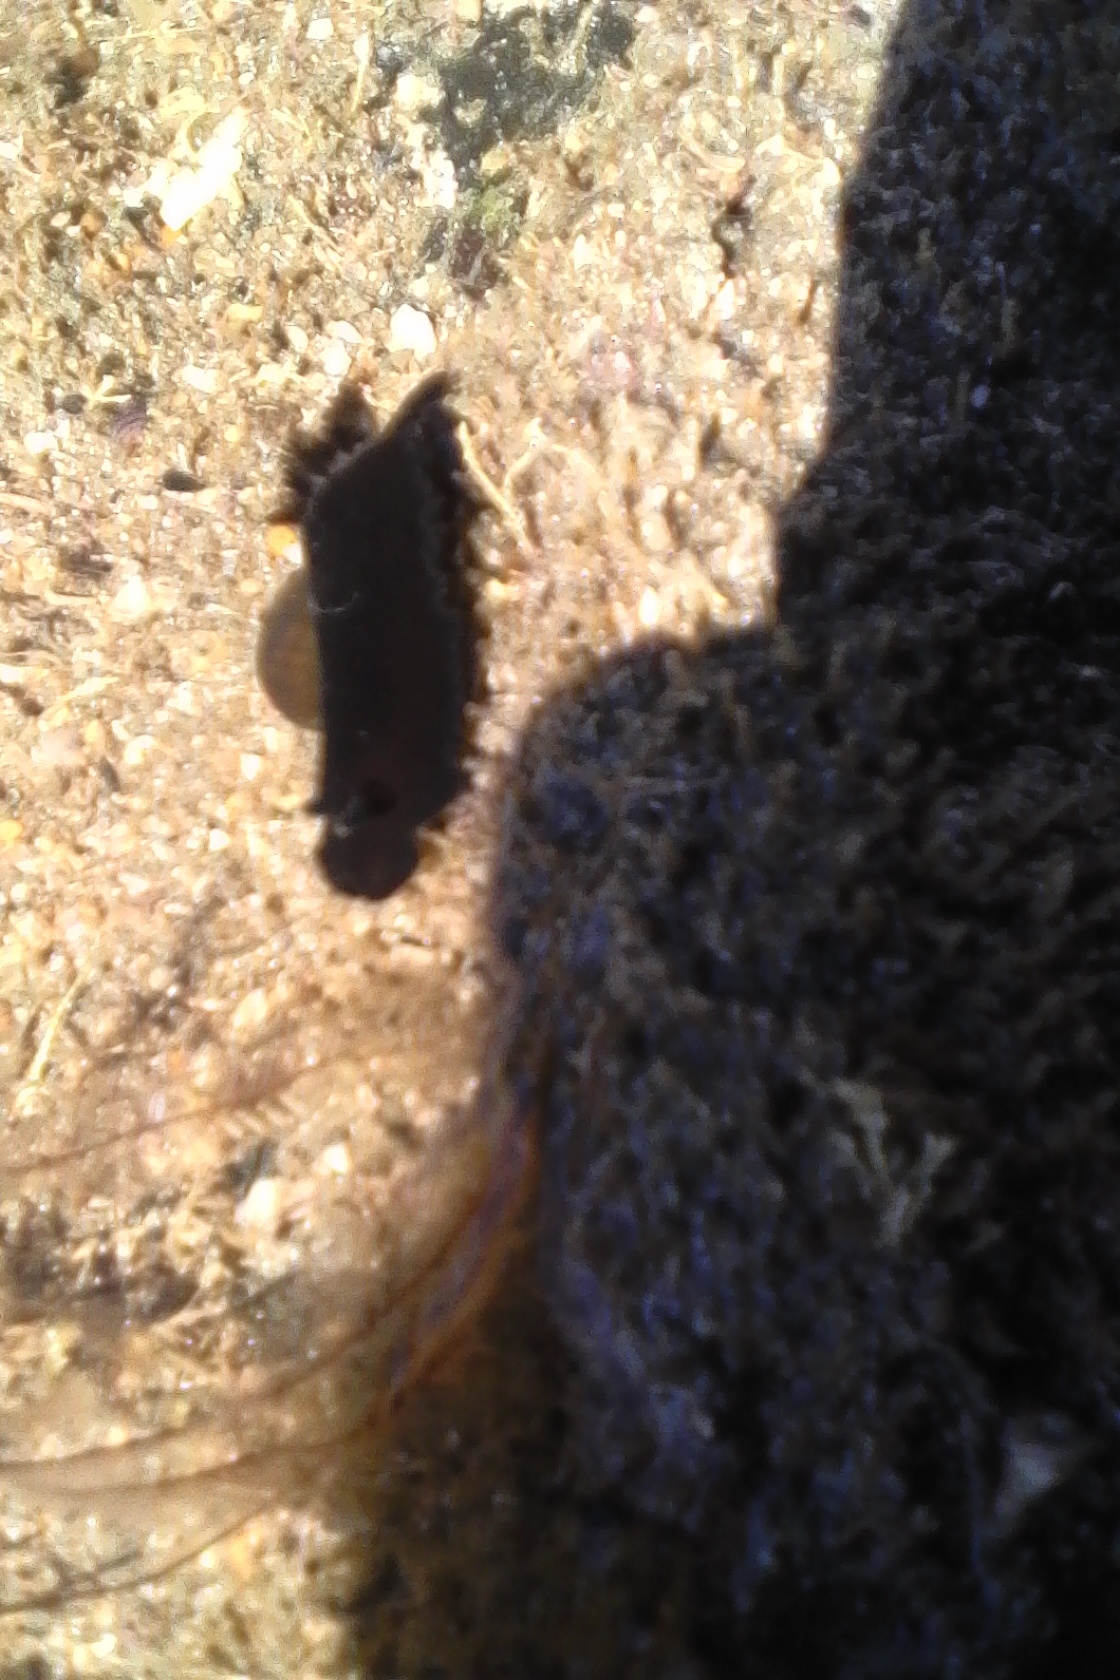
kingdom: Animalia
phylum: Mollusca
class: Gastropoda
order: Nudibranchia
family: Dendrodorididae
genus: Dendrodoris
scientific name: Dendrodoris nigra
